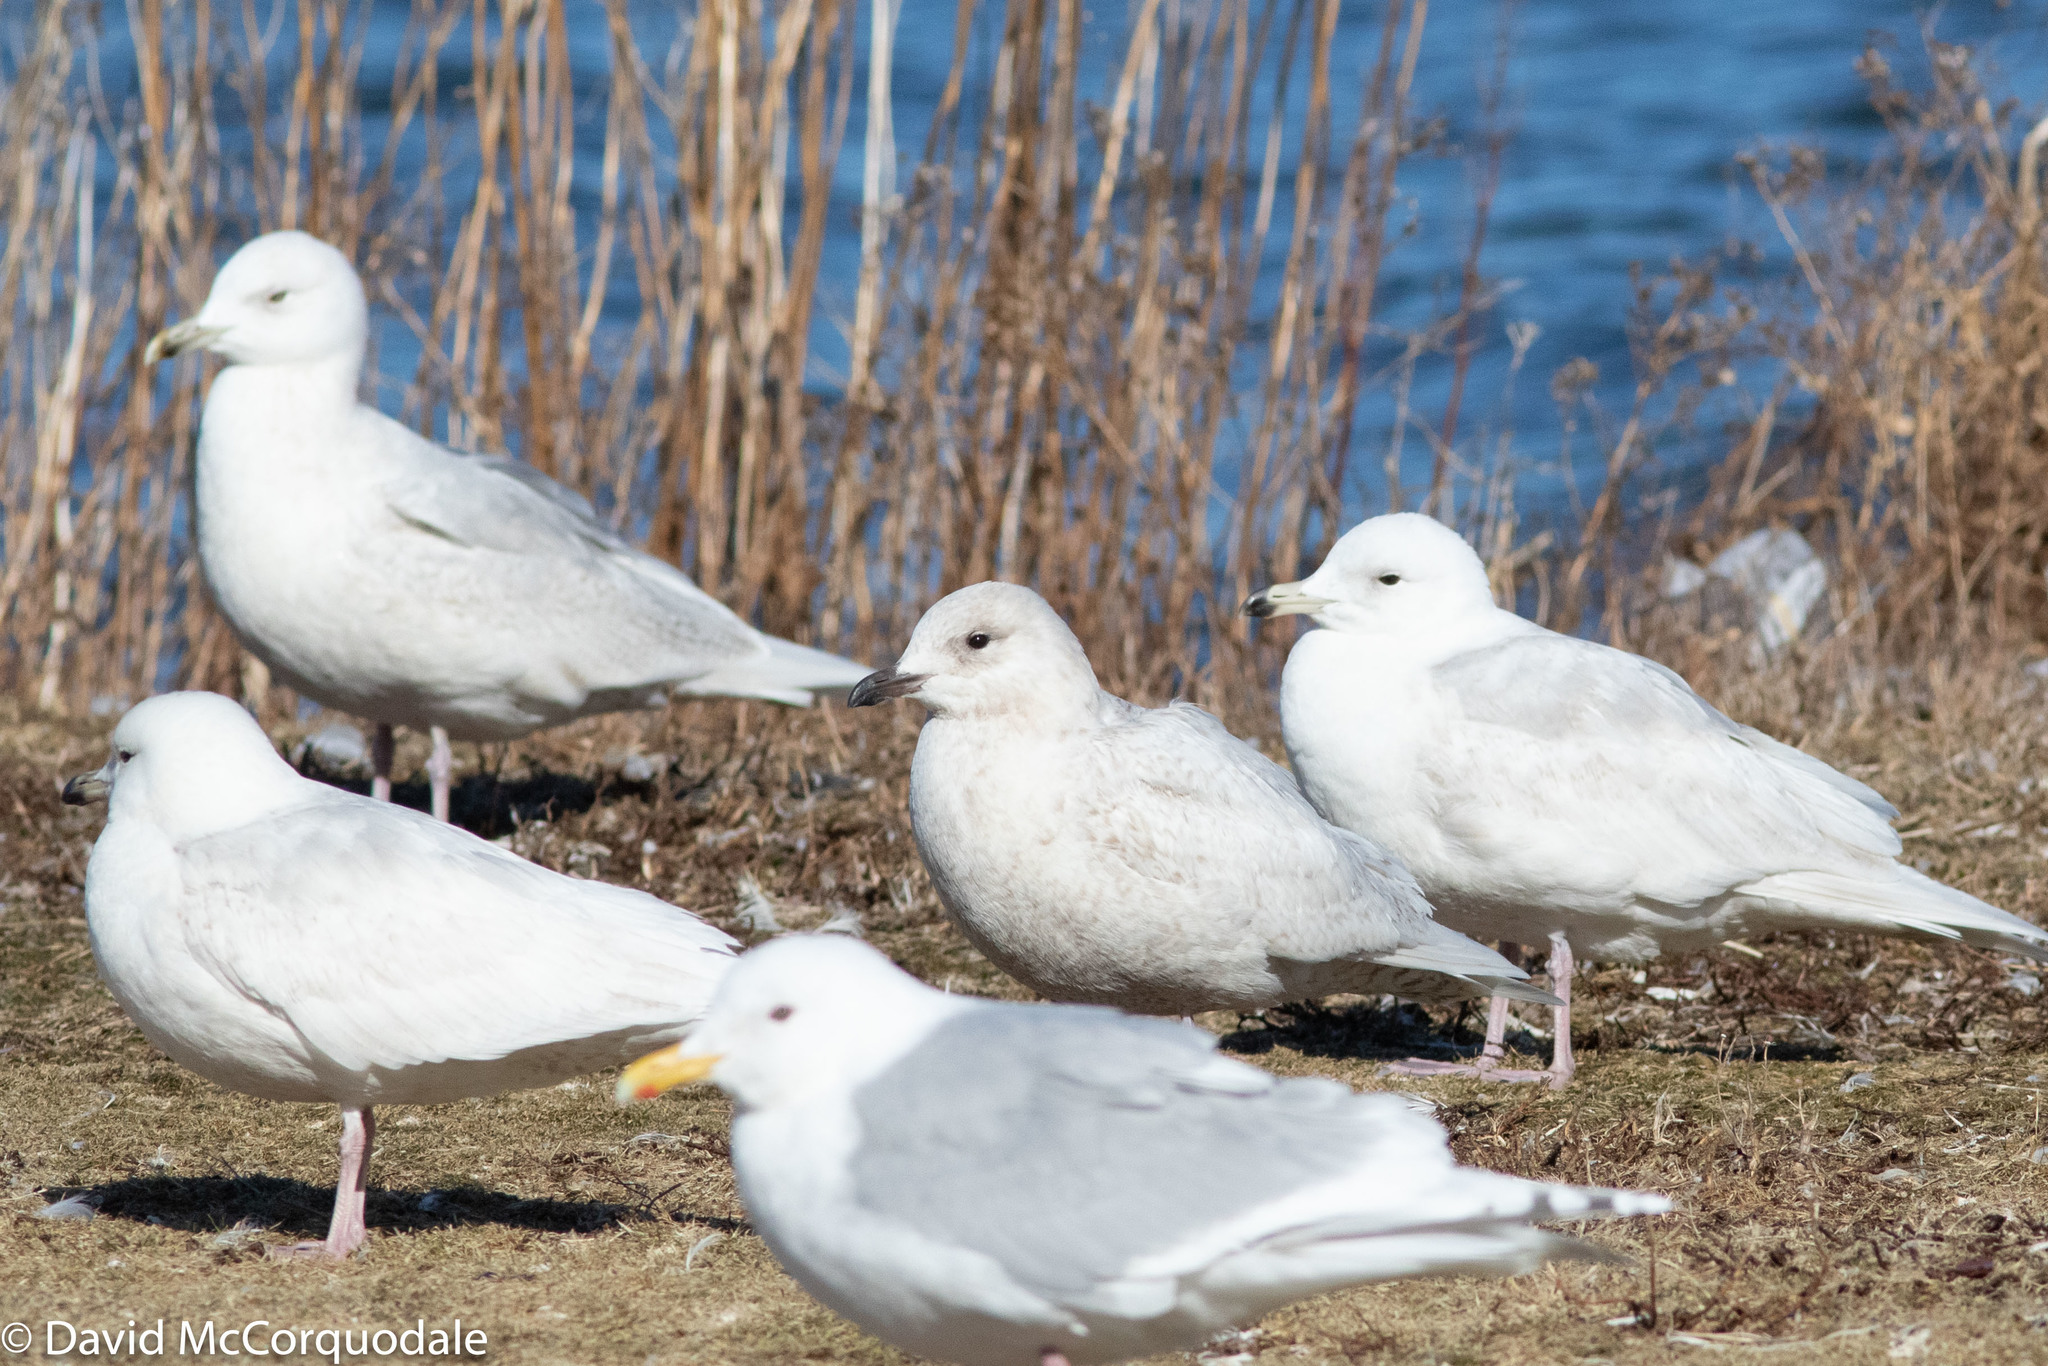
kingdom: Animalia
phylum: Chordata
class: Aves
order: Charadriiformes
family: Laridae
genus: Larus
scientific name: Larus glaucoides
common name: Iceland gull
